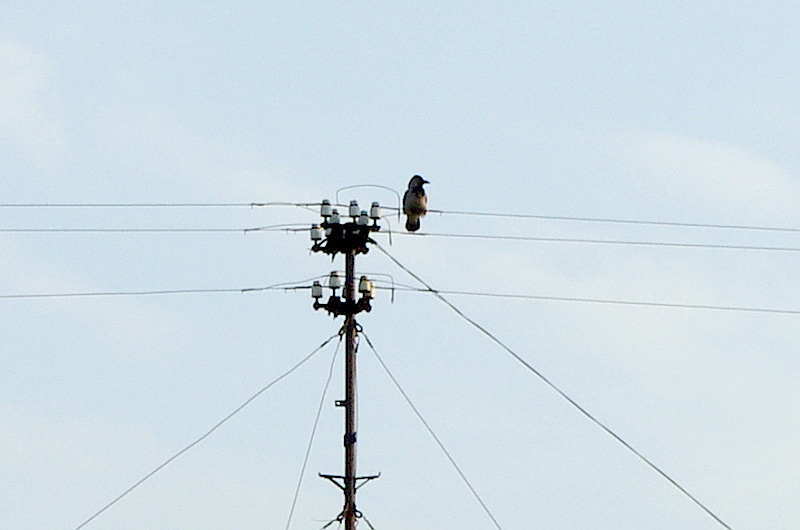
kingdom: Animalia
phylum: Chordata
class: Aves
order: Passeriformes
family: Corvidae
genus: Corvus
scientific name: Corvus cornix
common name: Hooded crow
